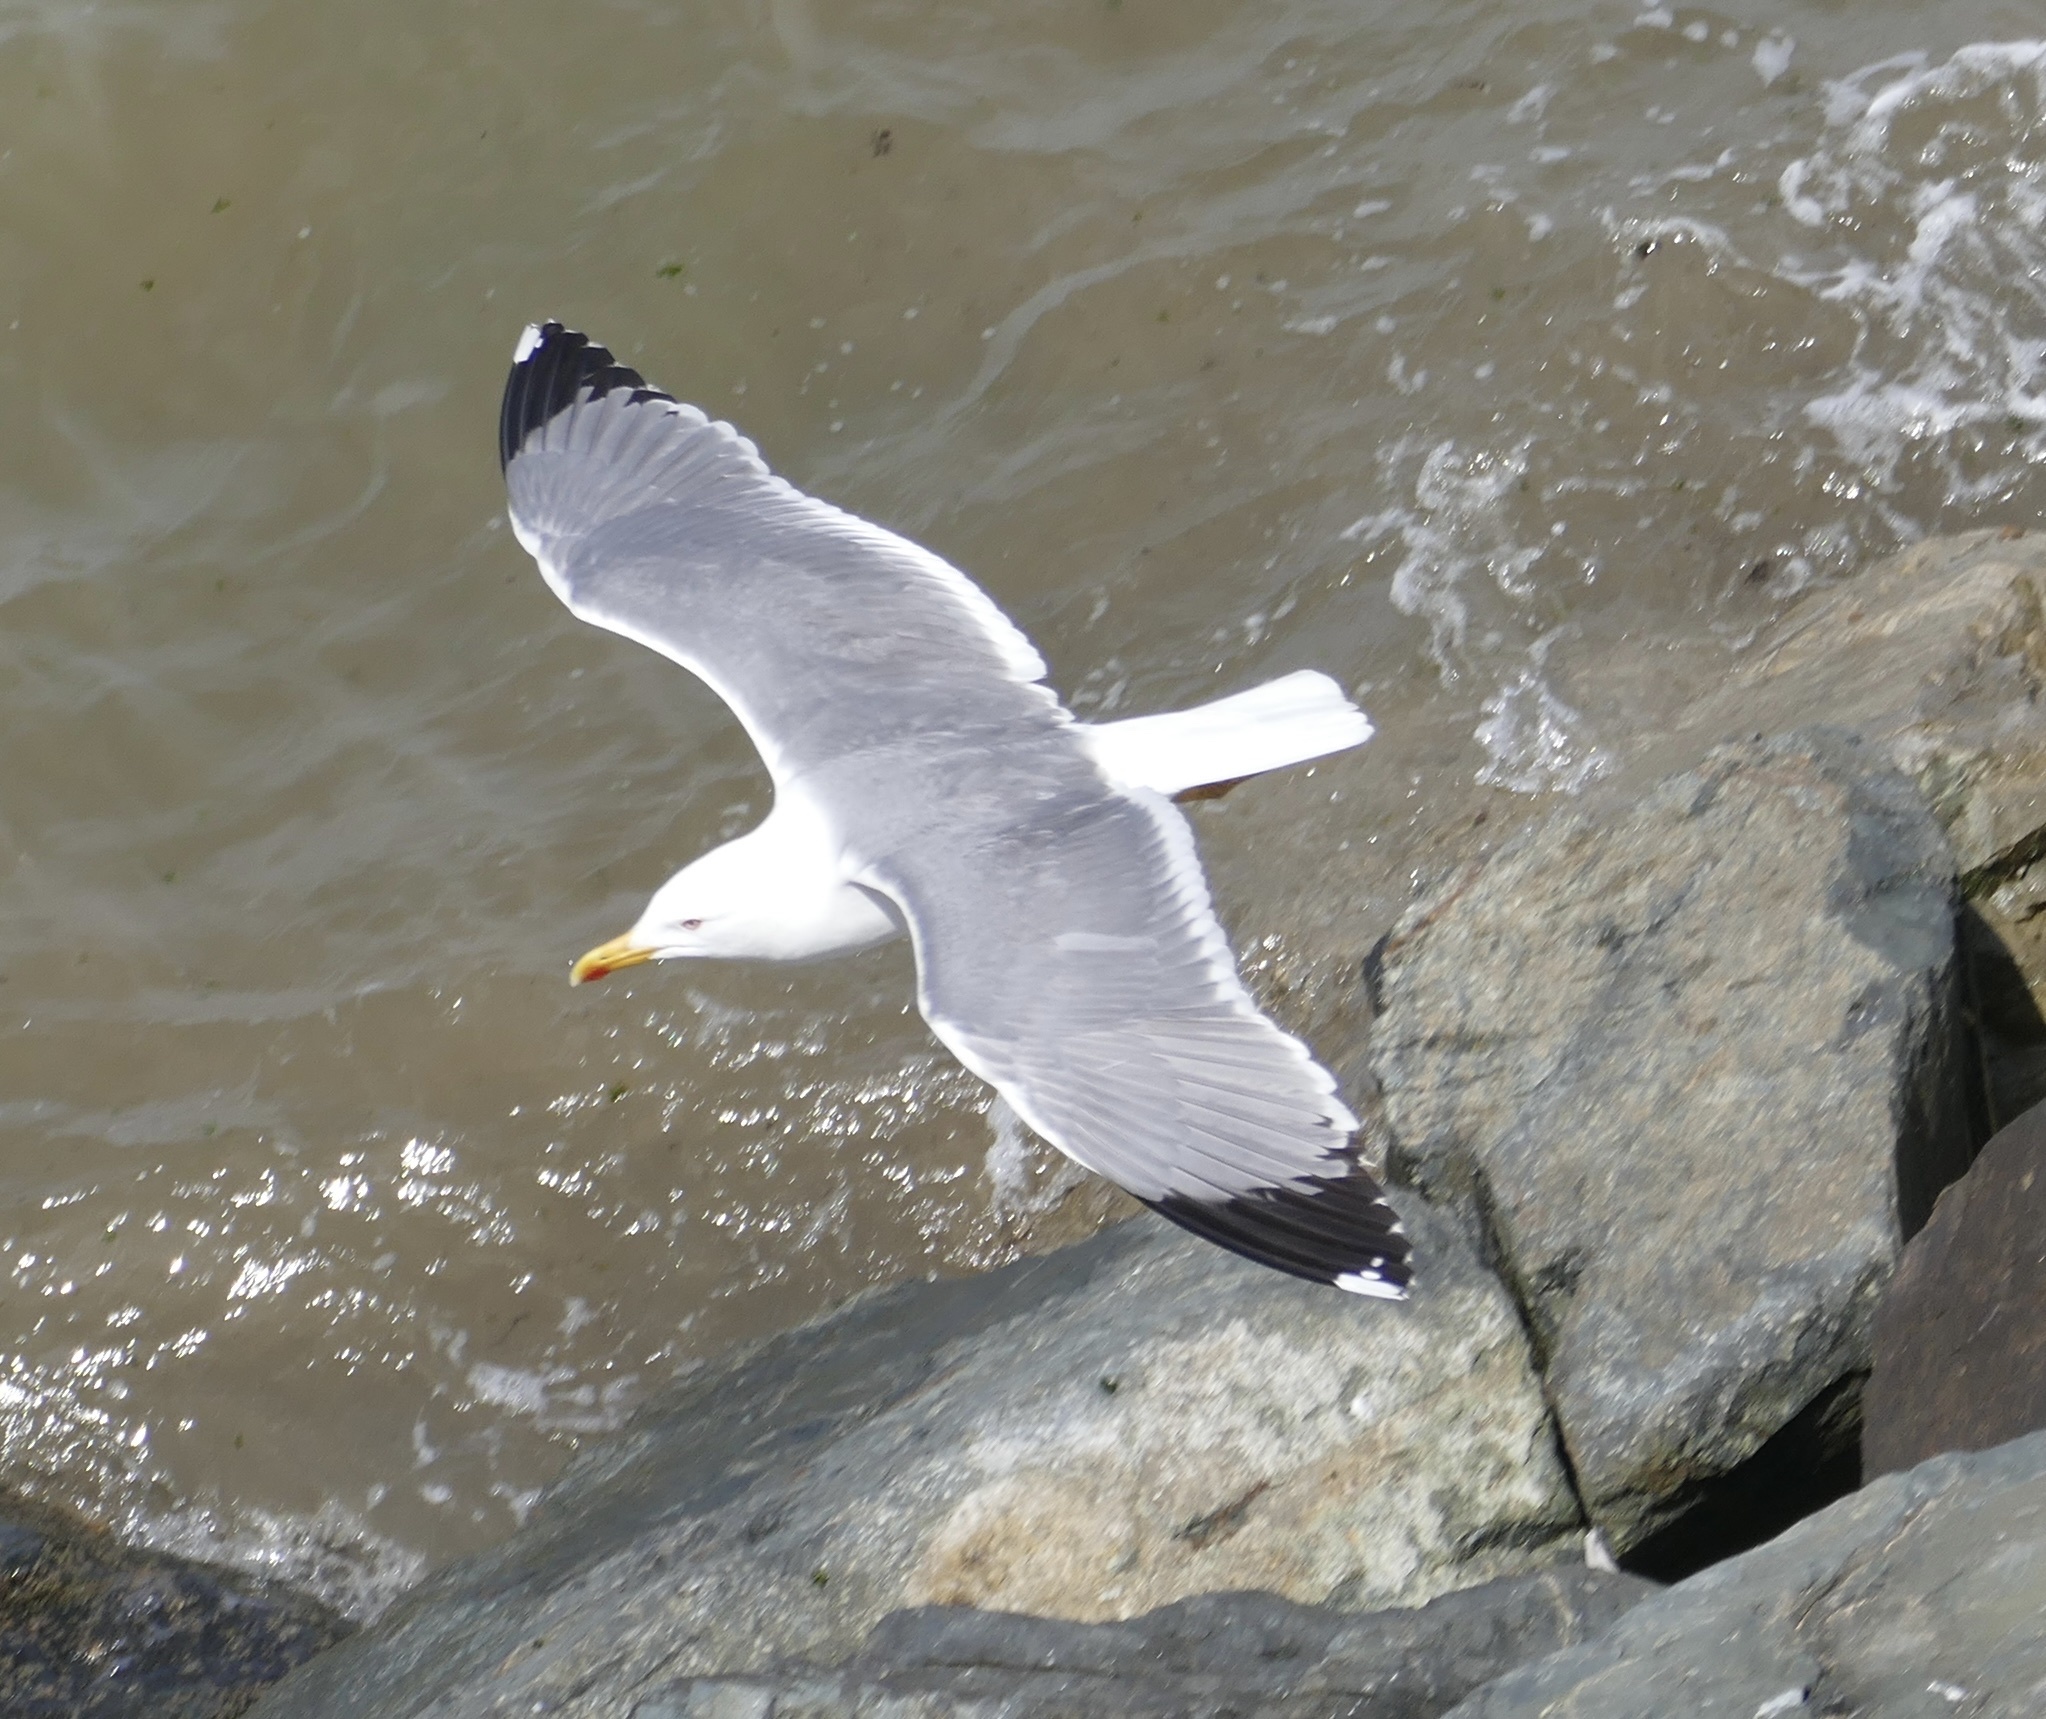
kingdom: Animalia
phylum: Chordata
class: Aves
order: Charadriiformes
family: Laridae
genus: Larus
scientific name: Larus michahellis
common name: Yellow-legged gull
